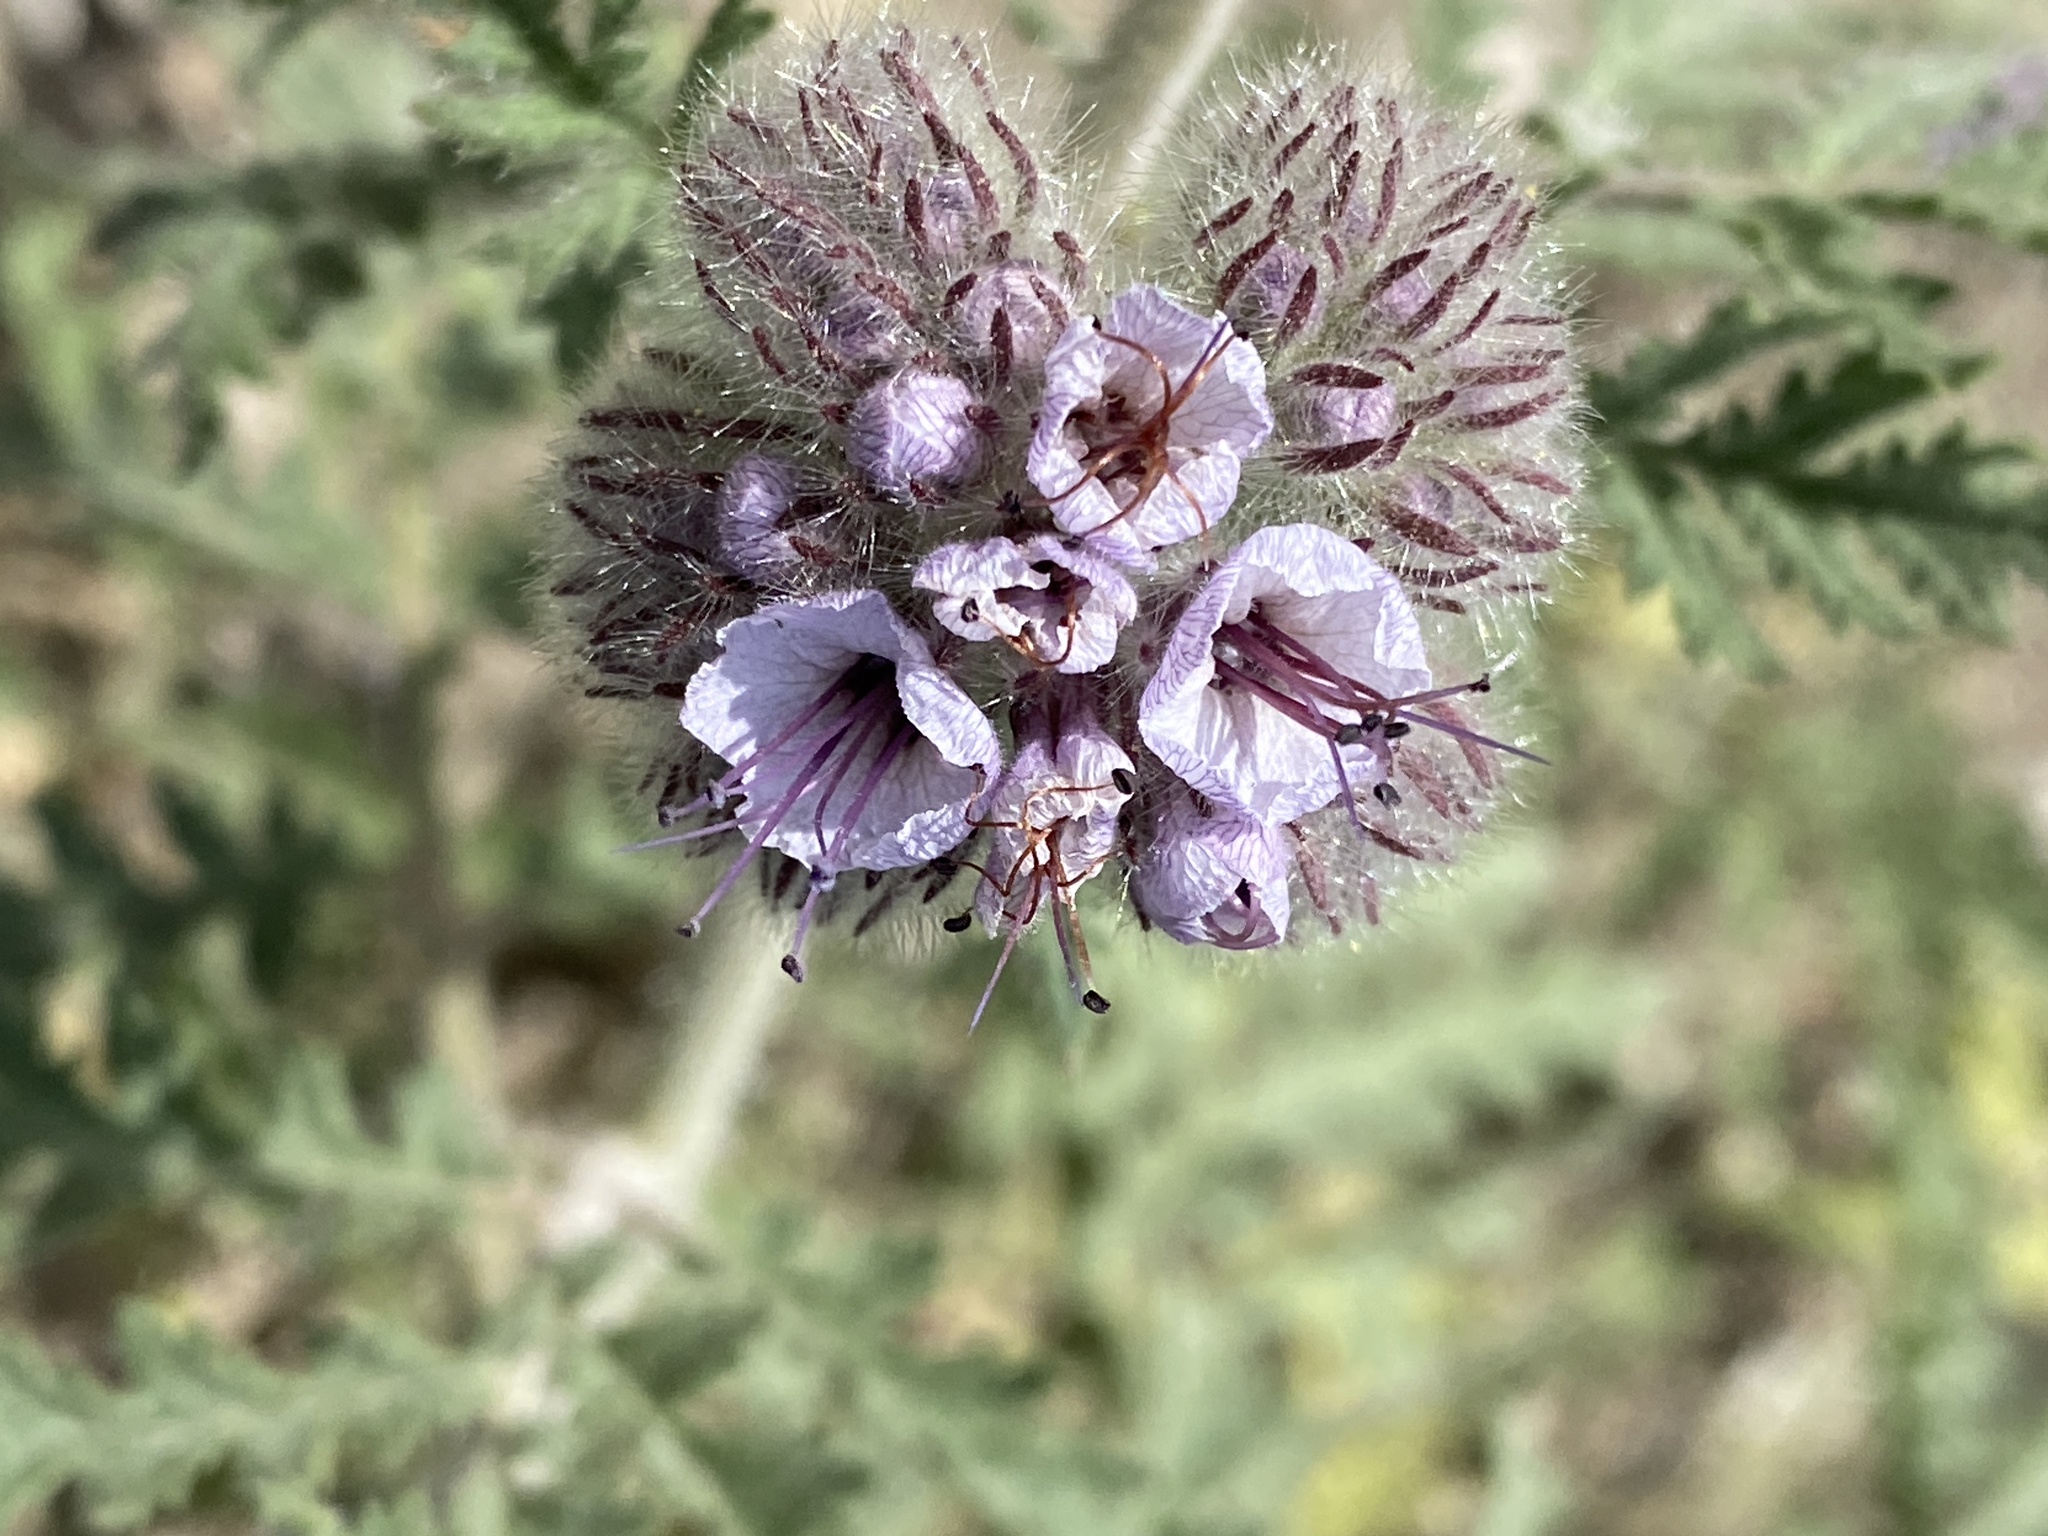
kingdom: Plantae
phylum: Tracheophyta
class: Magnoliopsida
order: Boraginales
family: Hydrophyllaceae
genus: Phacelia
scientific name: Phacelia hubbyi
